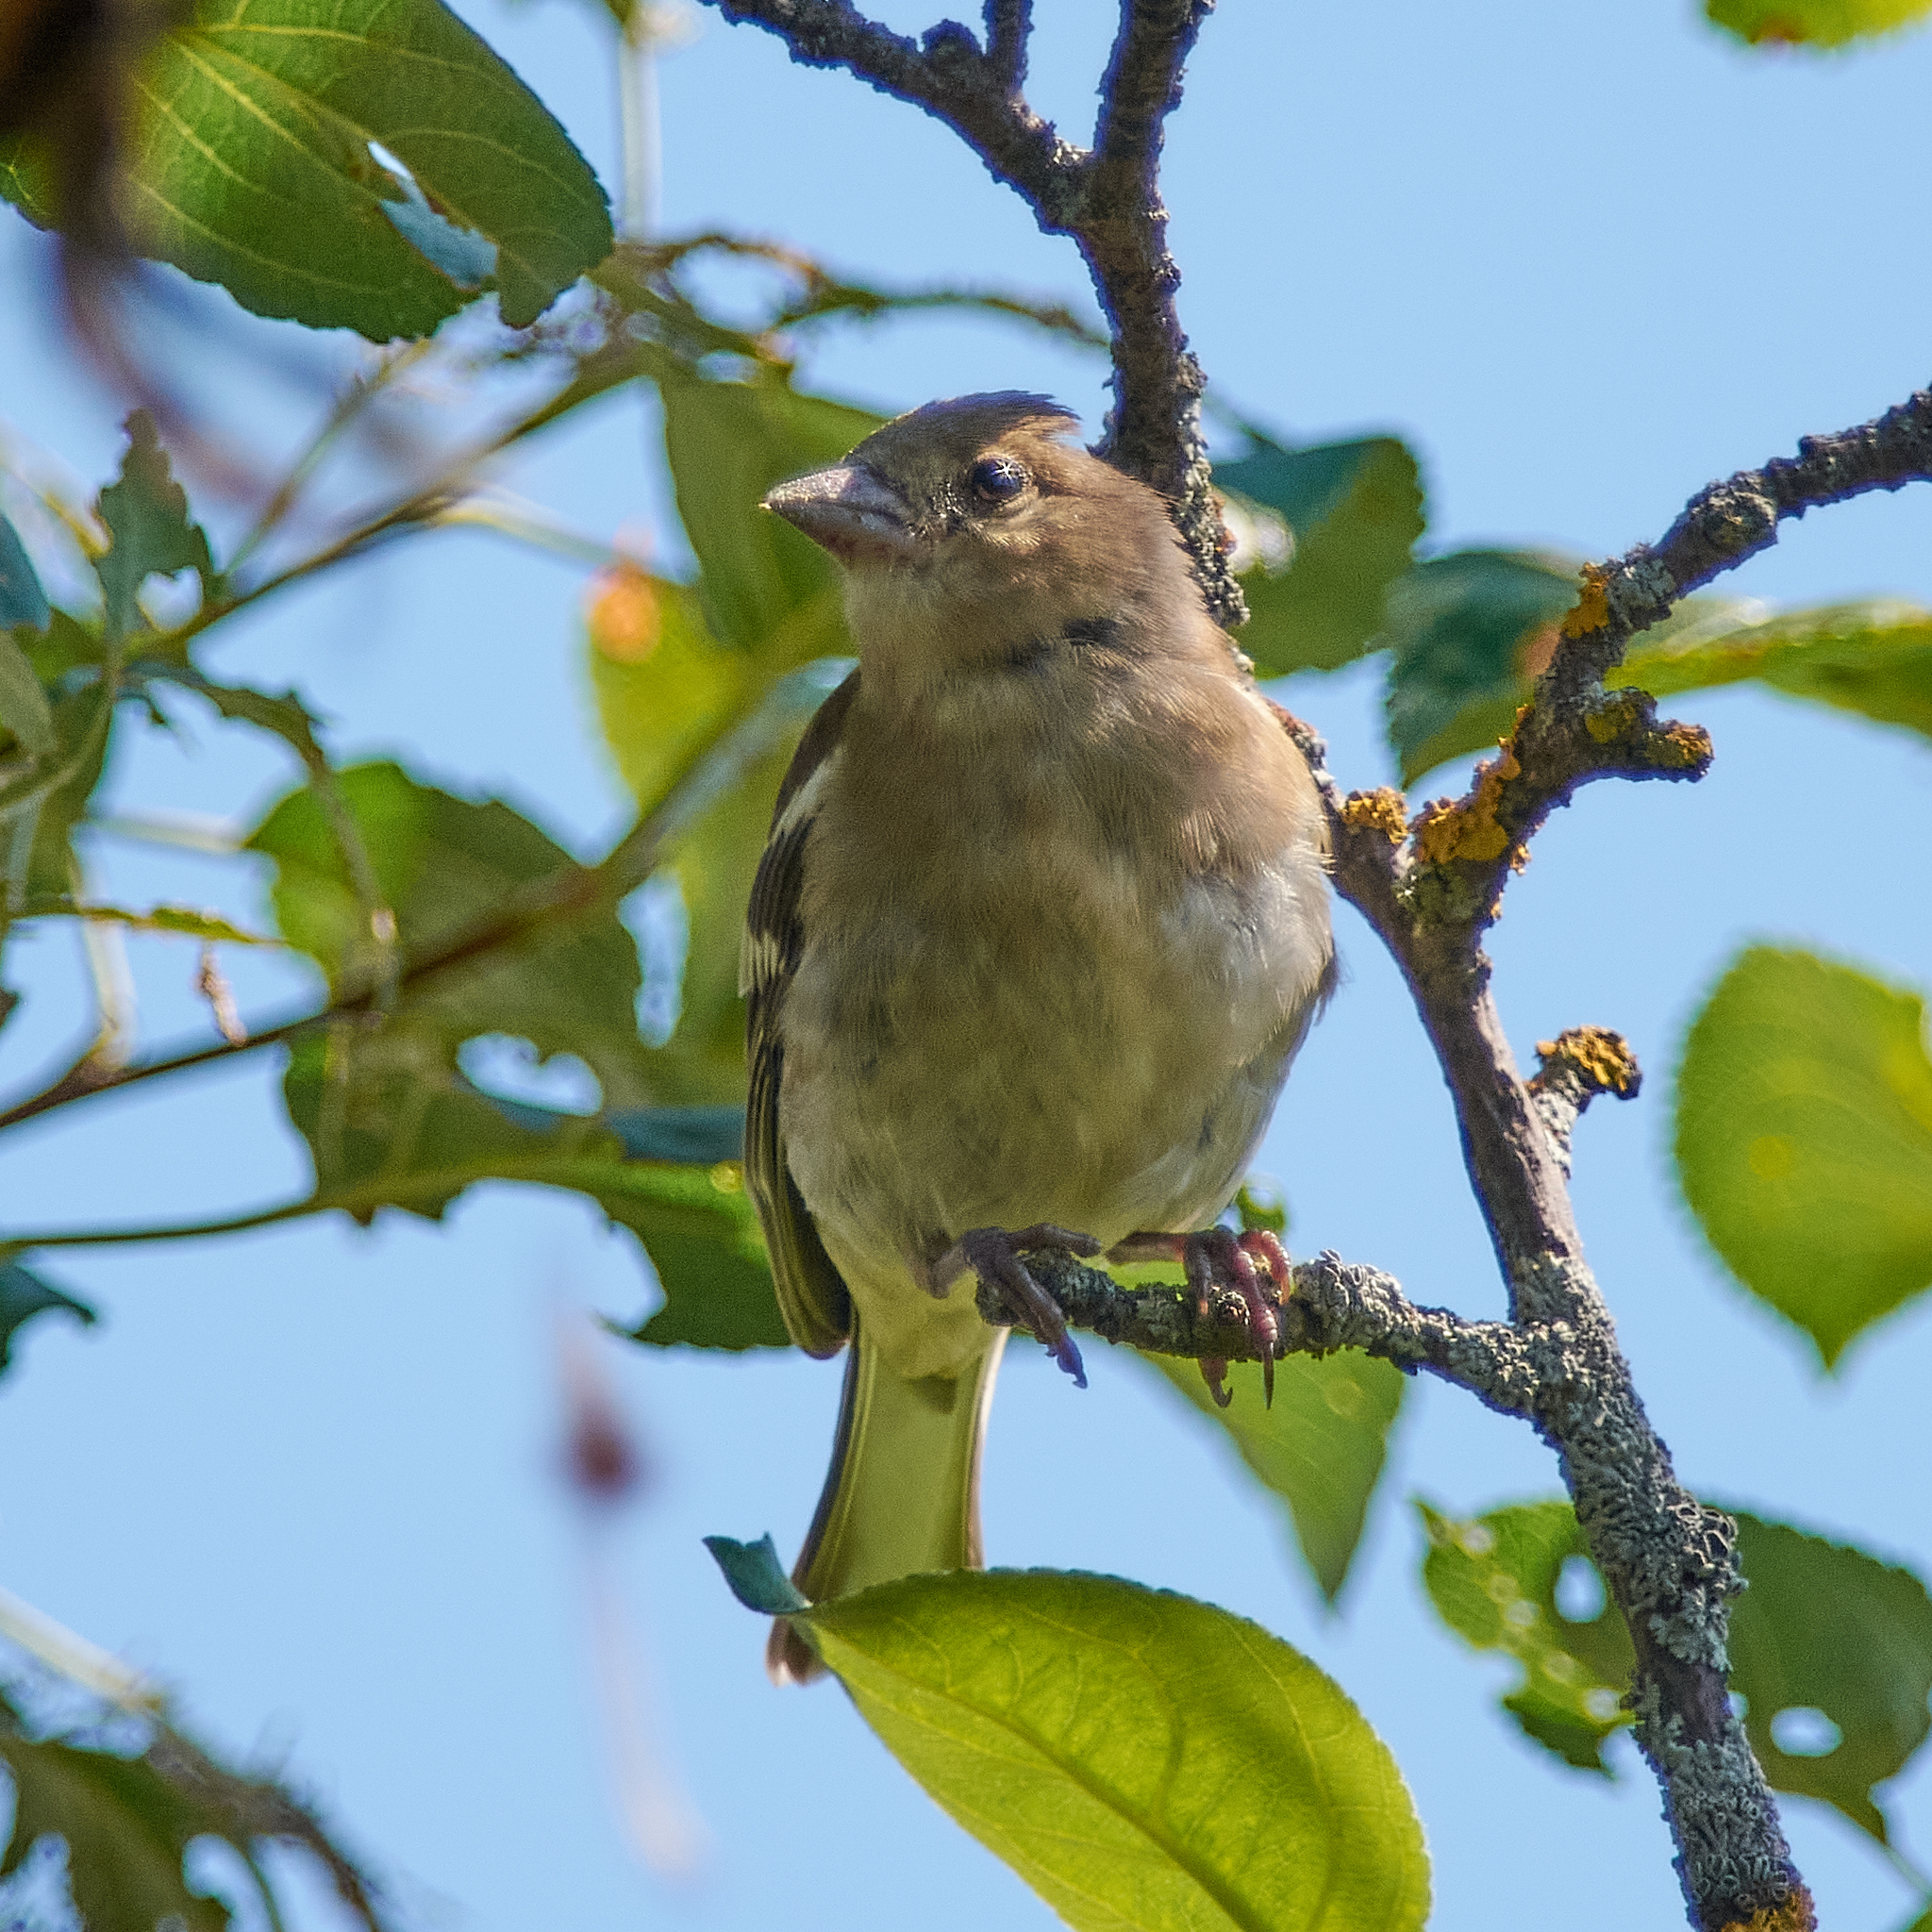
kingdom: Animalia
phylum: Chordata
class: Aves
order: Passeriformes
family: Fringillidae
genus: Fringilla
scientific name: Fringilla coelebs
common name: Common chaffinch
